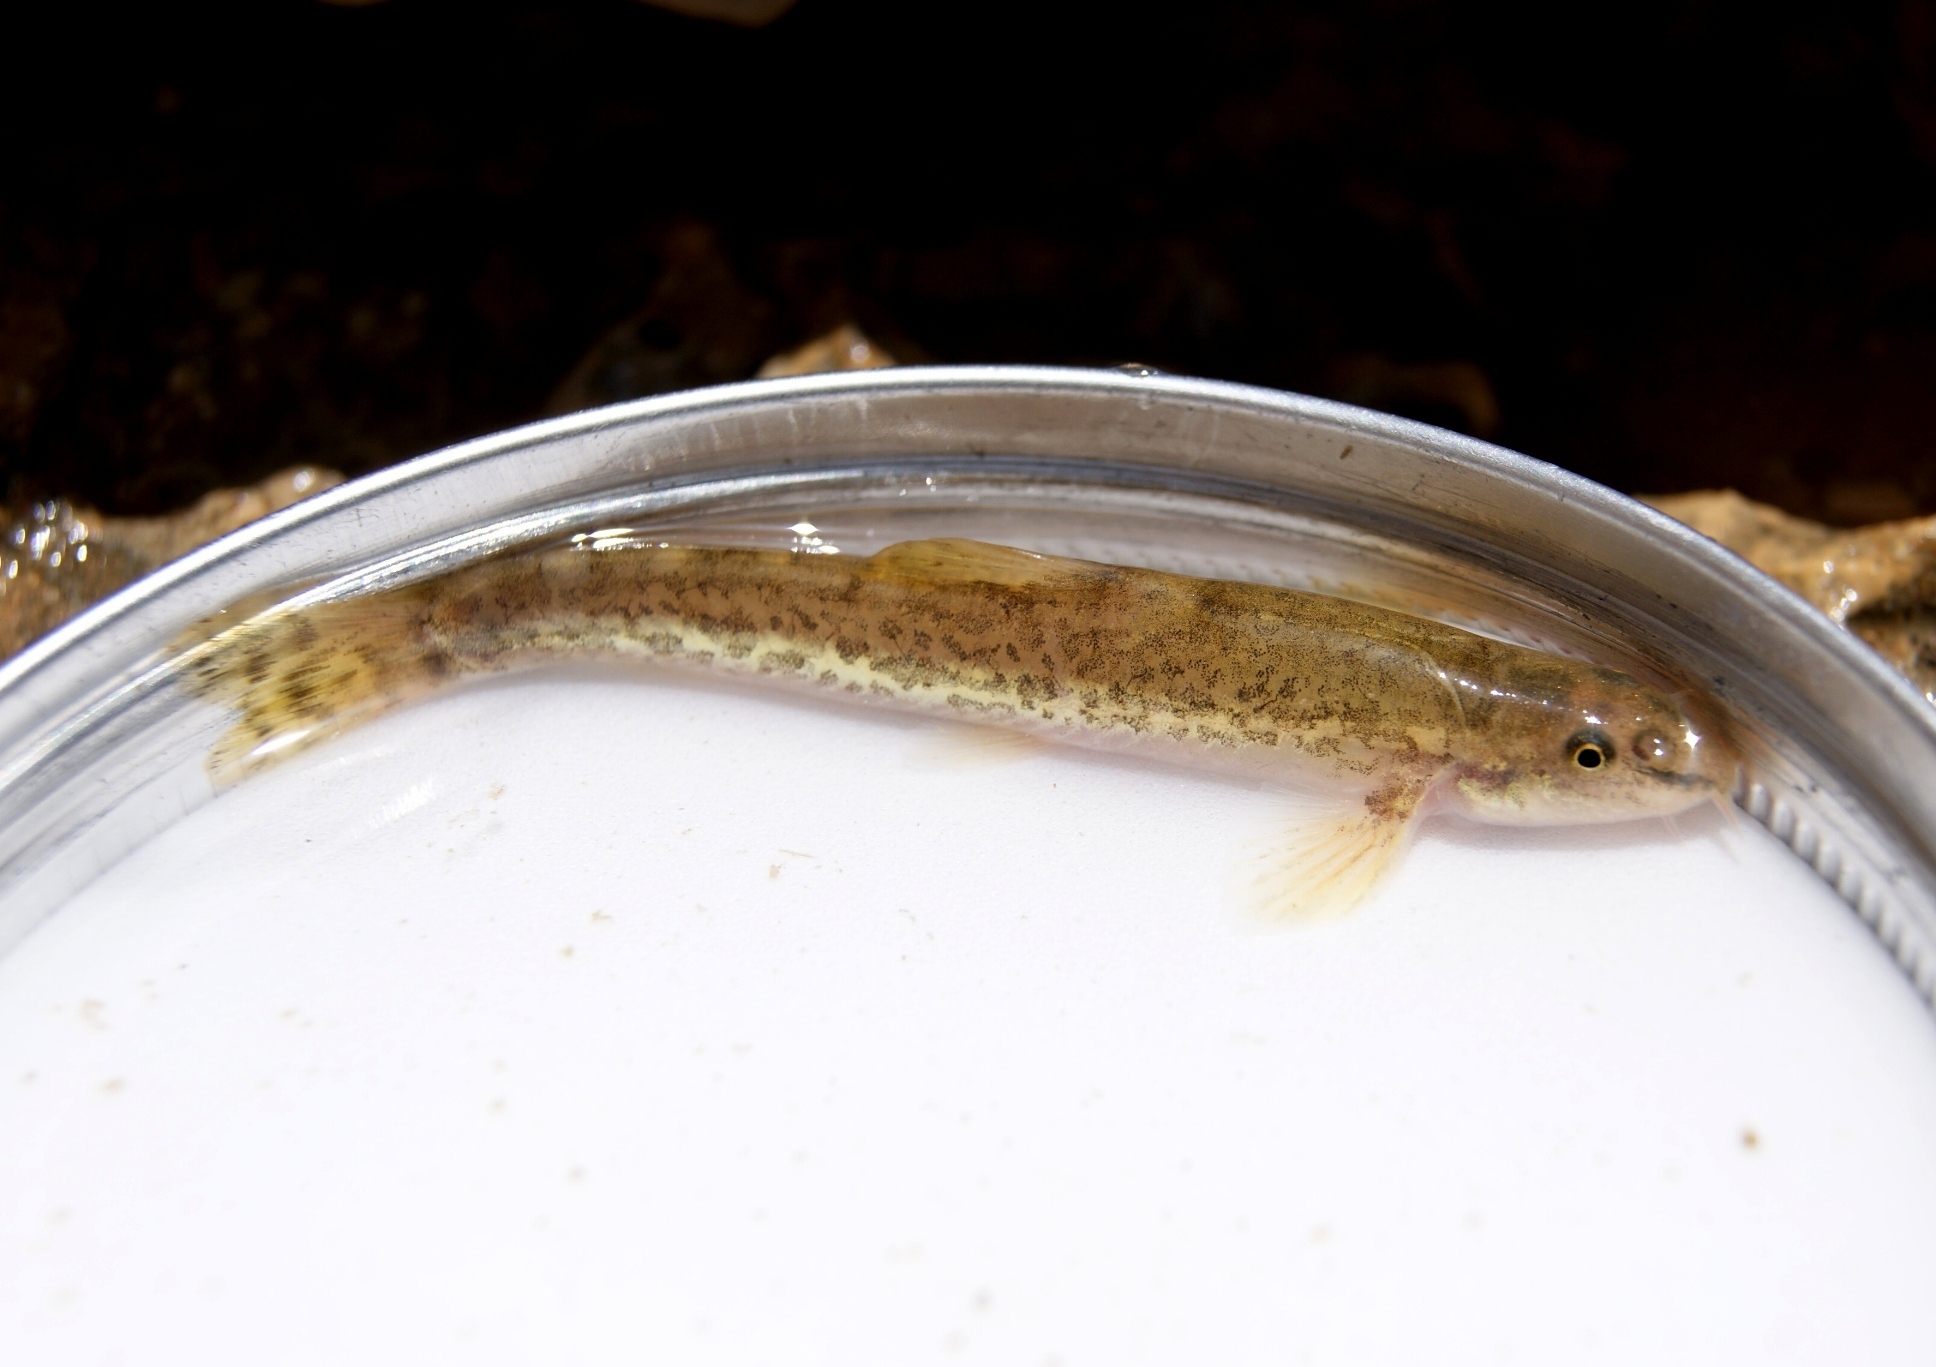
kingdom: Animalia
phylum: Chordata
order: Cypriniformes
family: Nemacheilidae
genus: Oxynoemacheilus
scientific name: Oxynoemacheilus insignis
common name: Palestine loach
